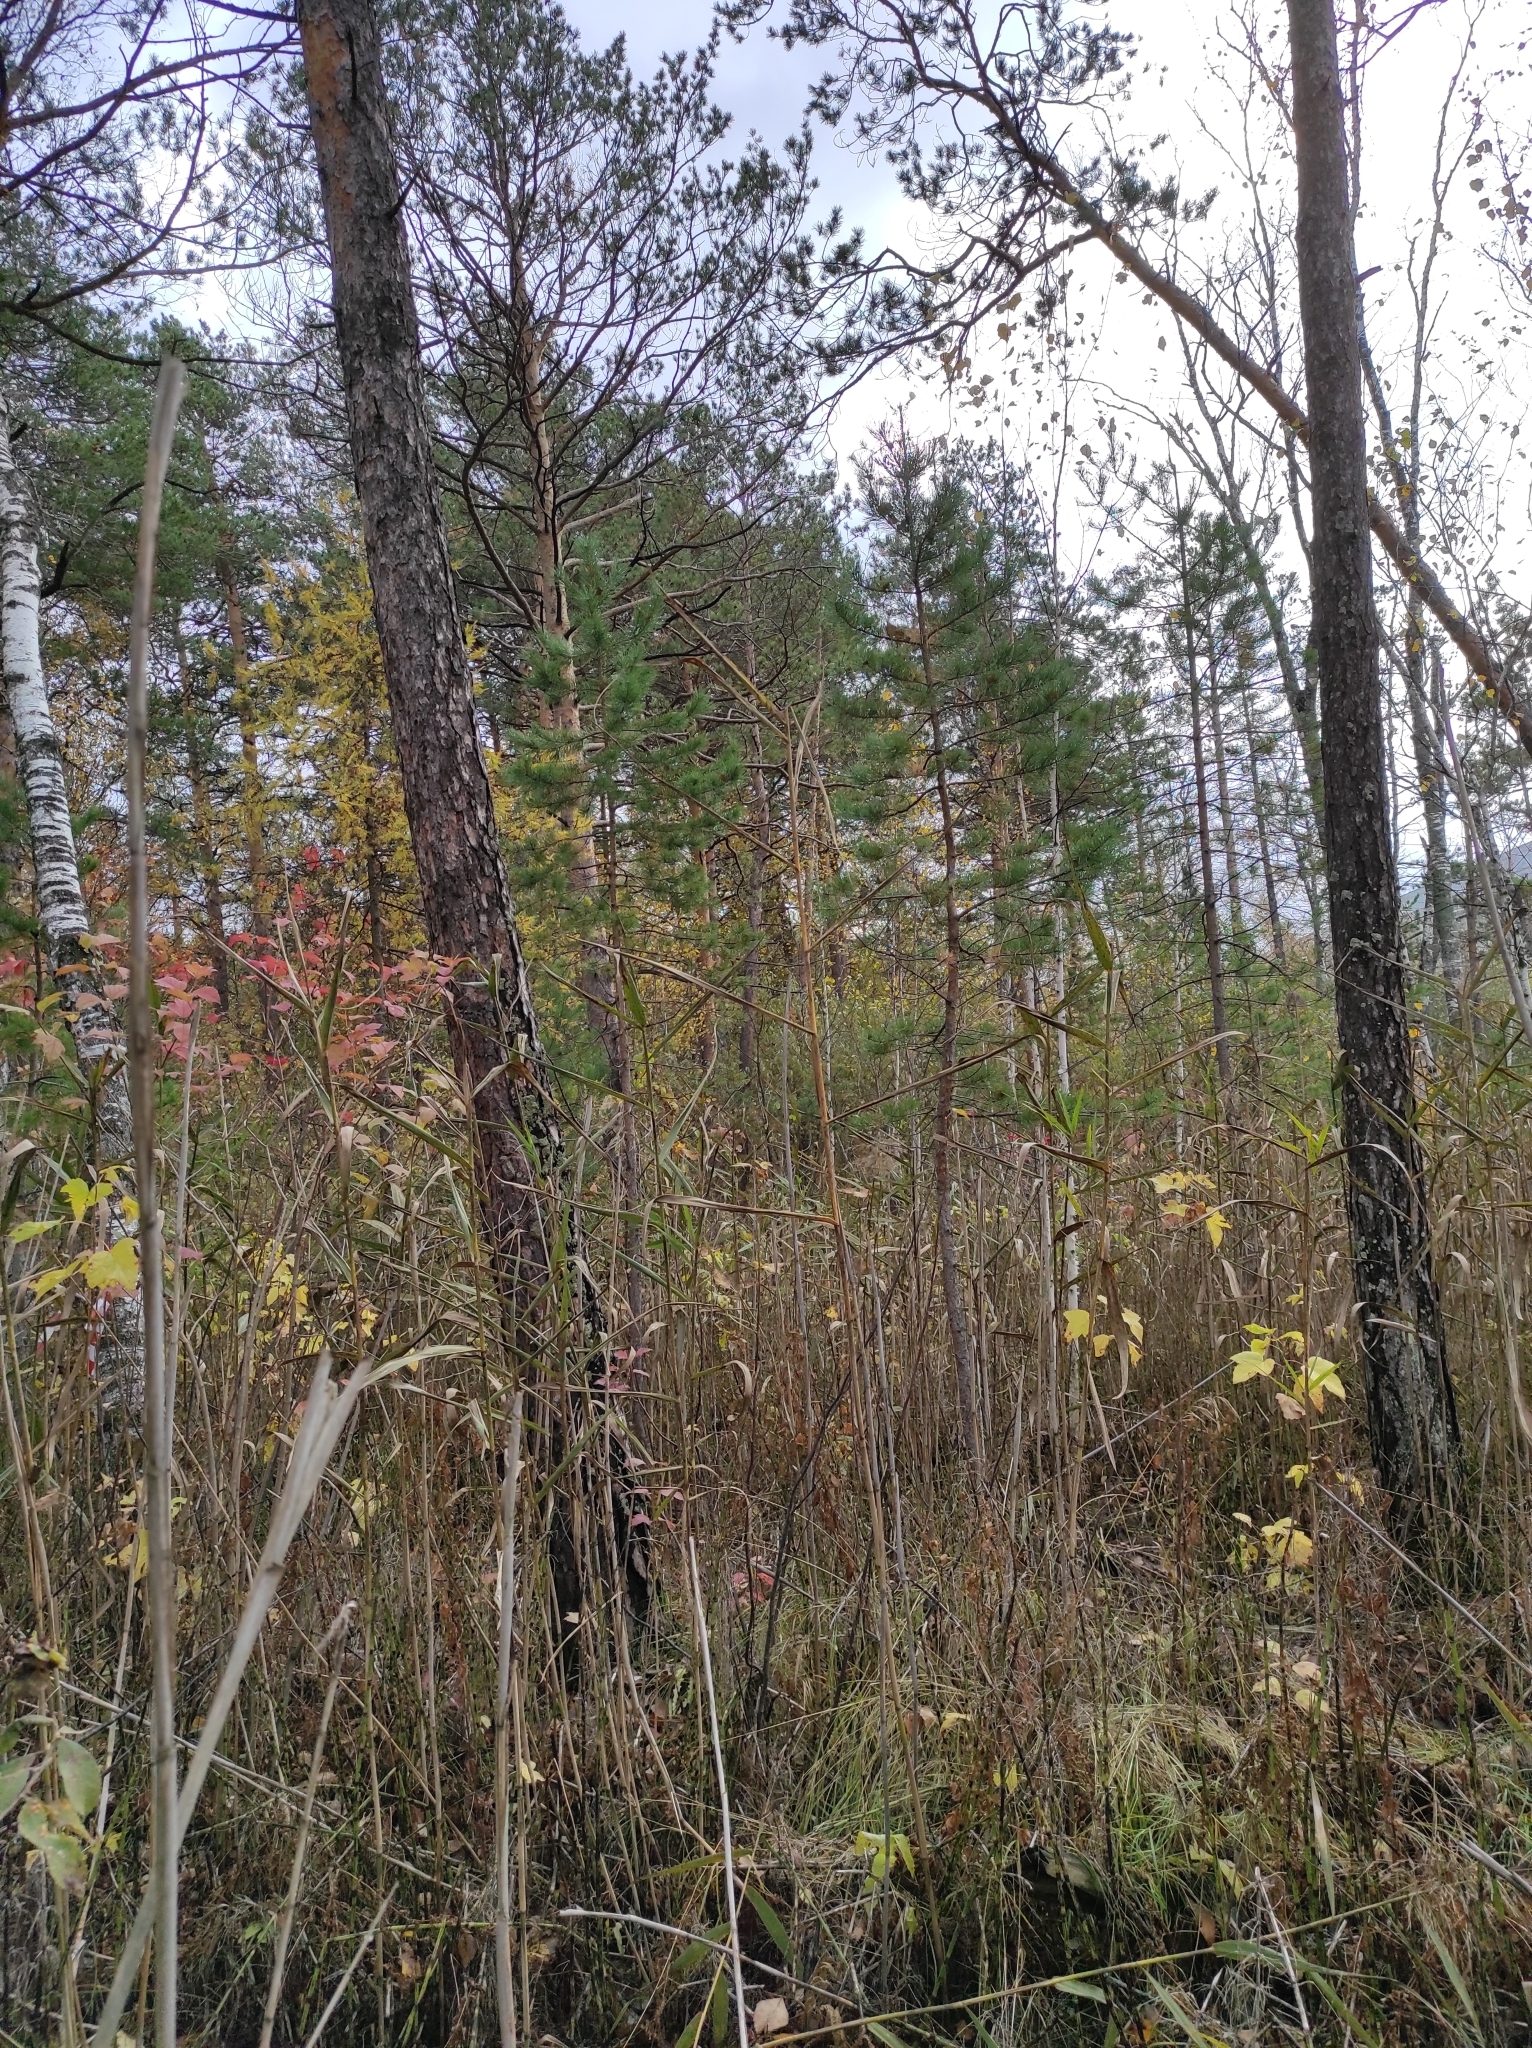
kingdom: Plantae
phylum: Tracheophyta
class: Pinopsida
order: Pinales
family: Pinaceae
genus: Pinus
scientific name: Pinus sylvestris
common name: Scots pine
